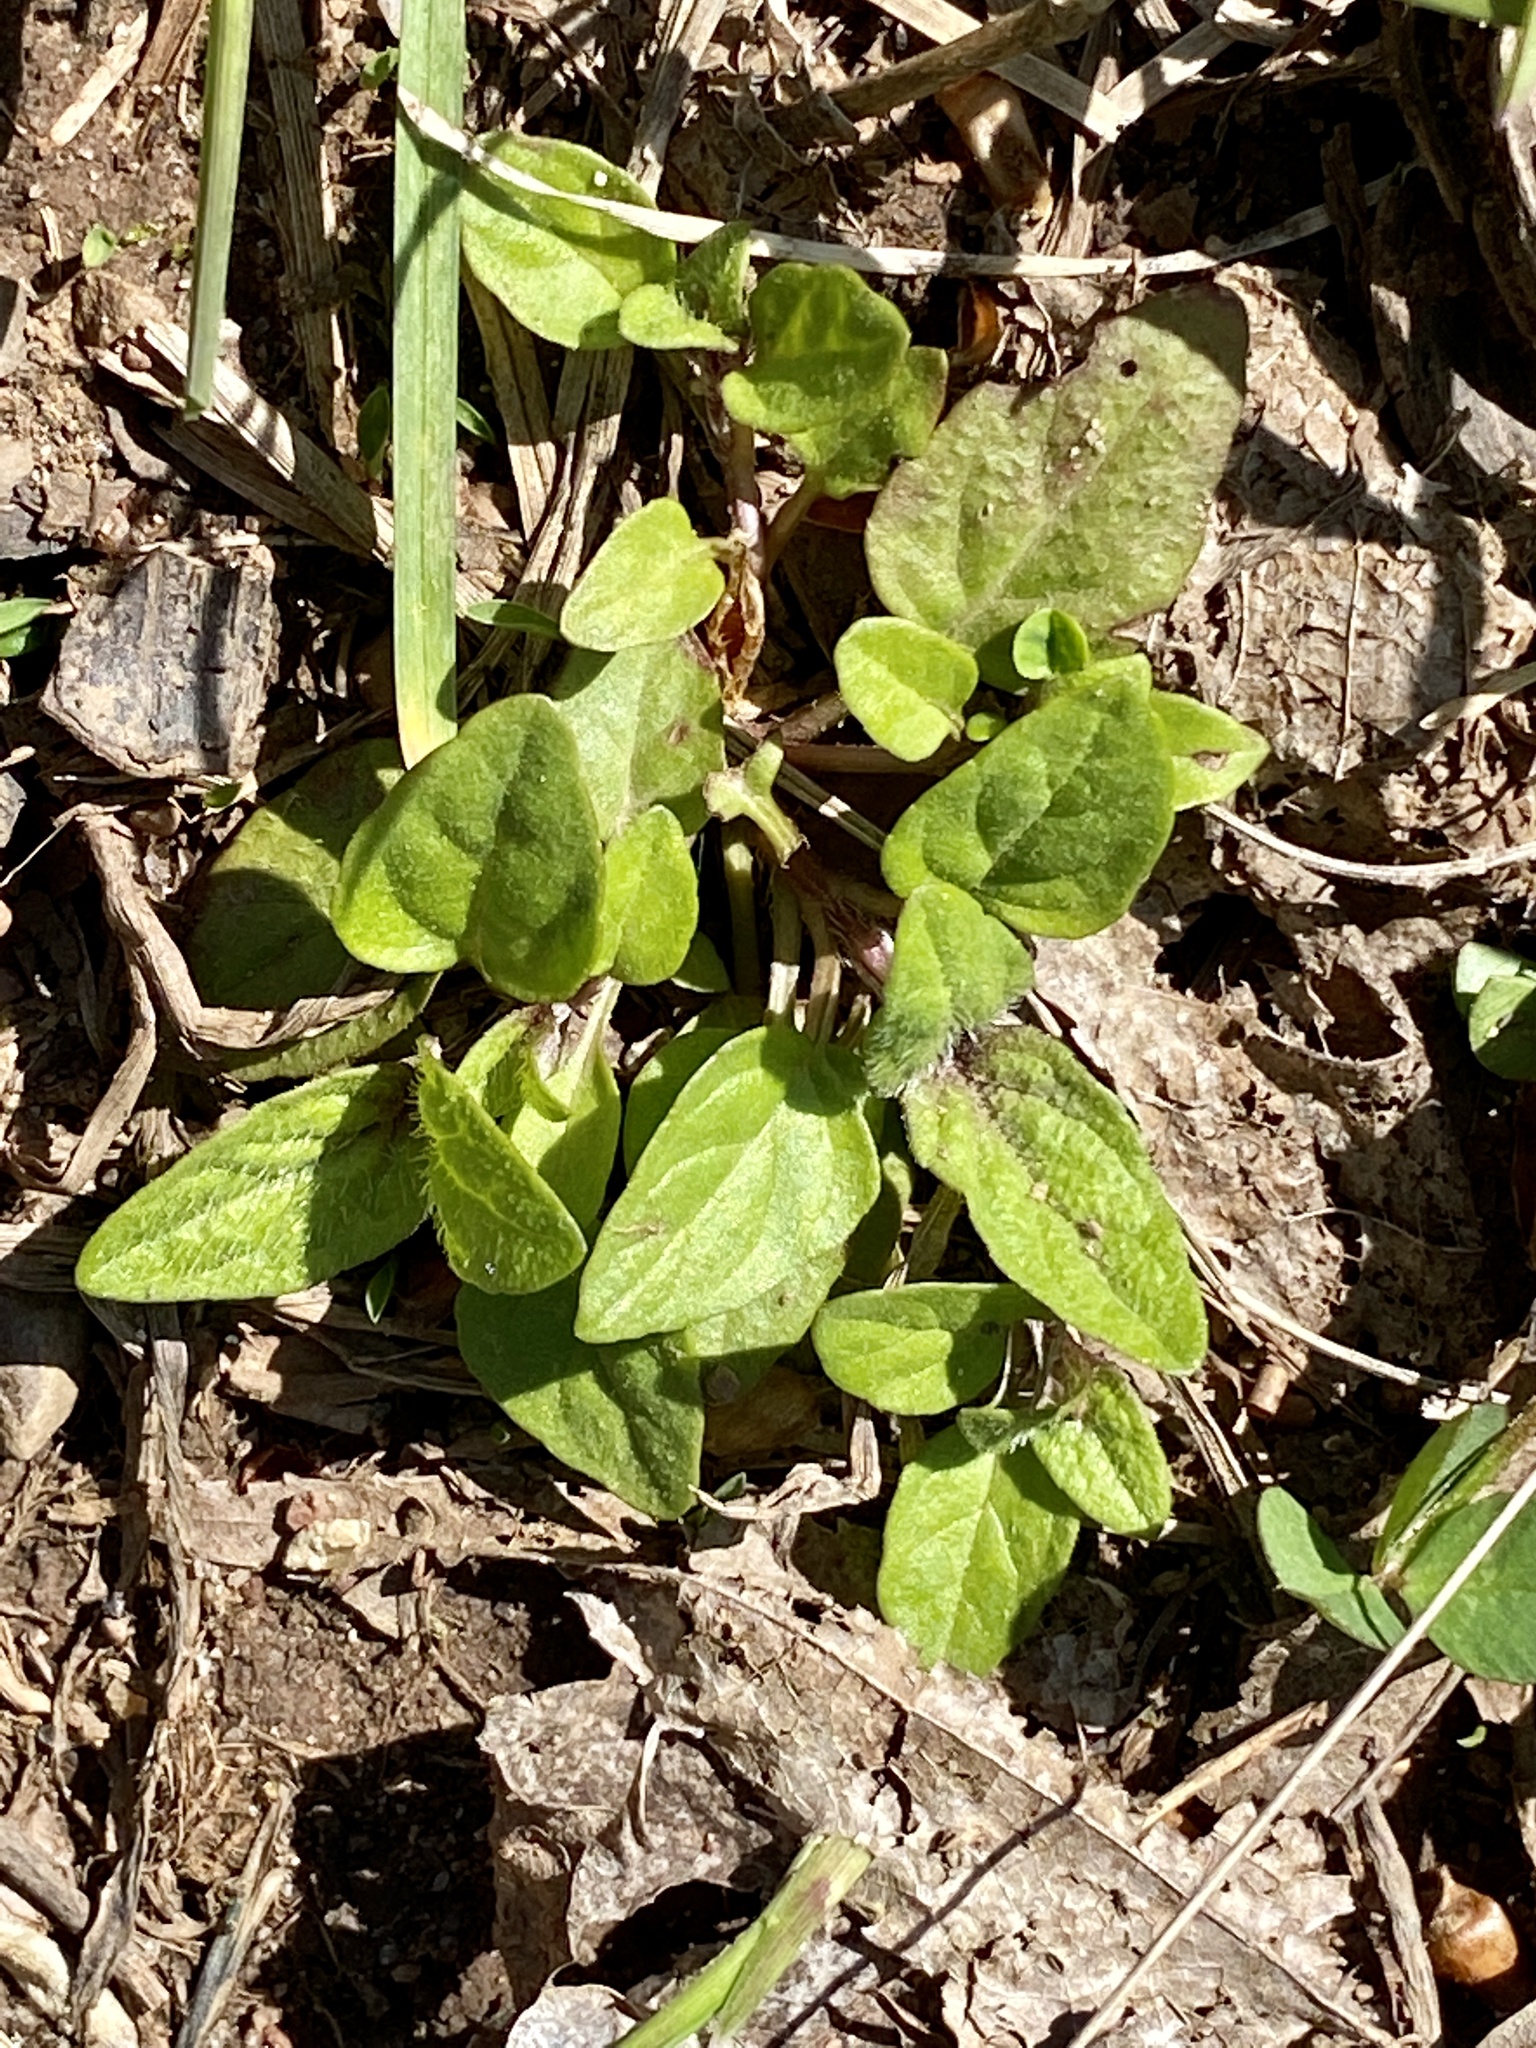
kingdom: Plantae
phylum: Tracheophyta
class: Magnoliopsida
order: Lamiales
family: Lamiaceae
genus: Prunella
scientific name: Prunella vulgaris
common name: Heal-all
